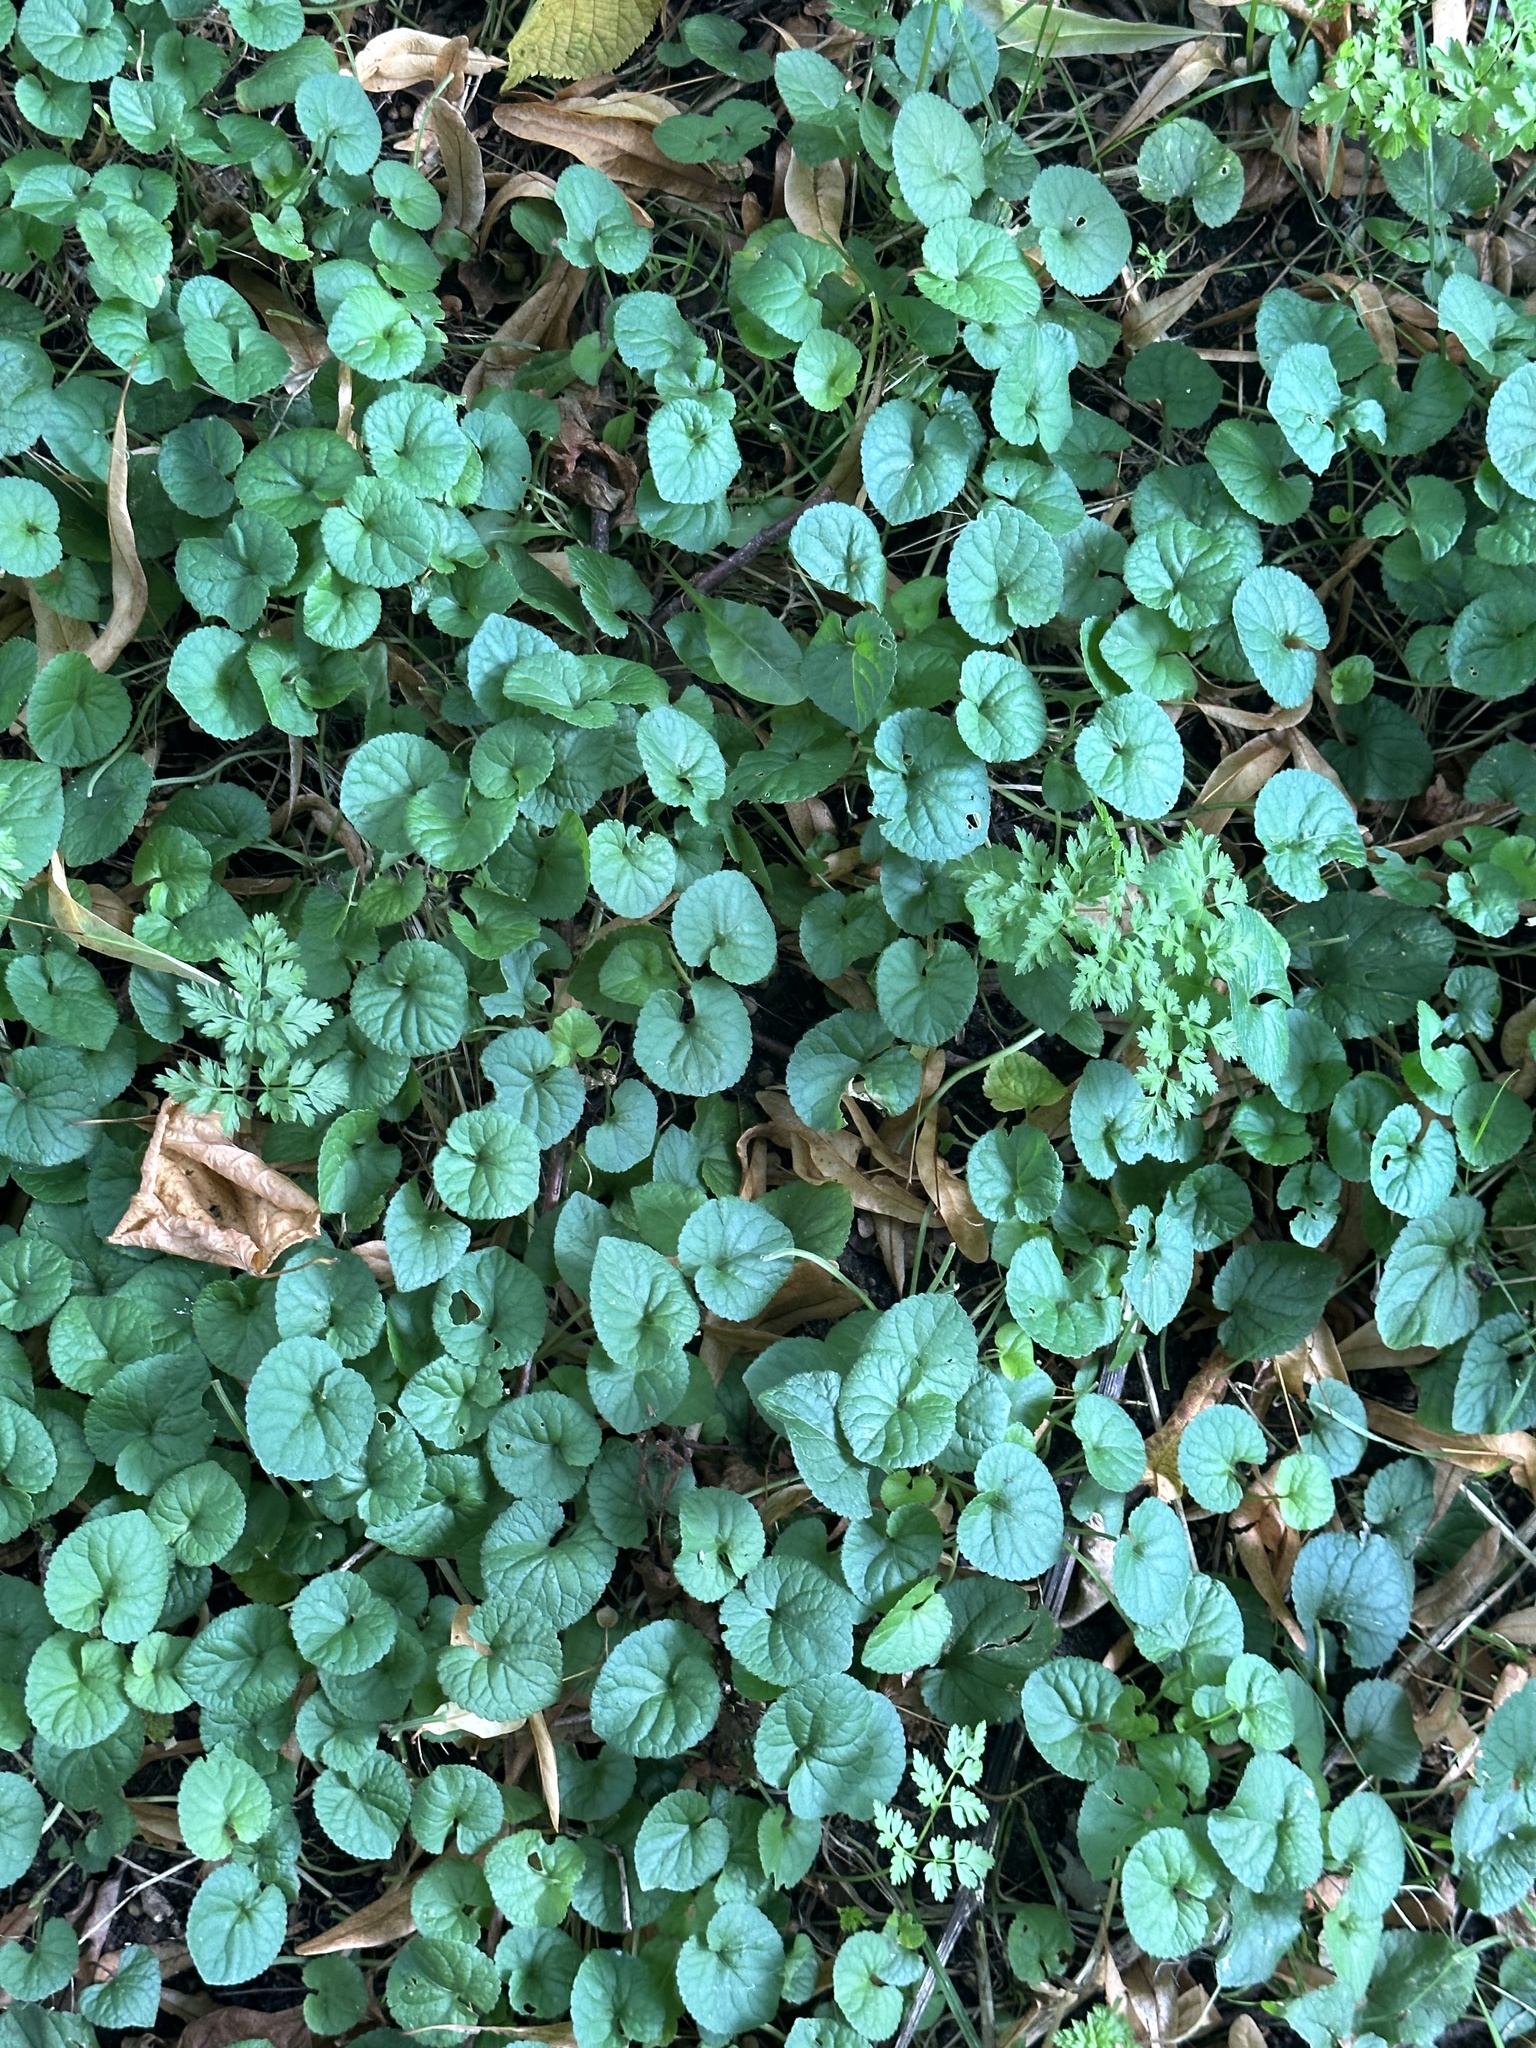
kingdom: Plantae
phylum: Tracheophyta
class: Magnoliopsida
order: Lamiales
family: Lamiaceae
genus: Glechoma
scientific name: Glechoma hederacea
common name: Ground ivy
